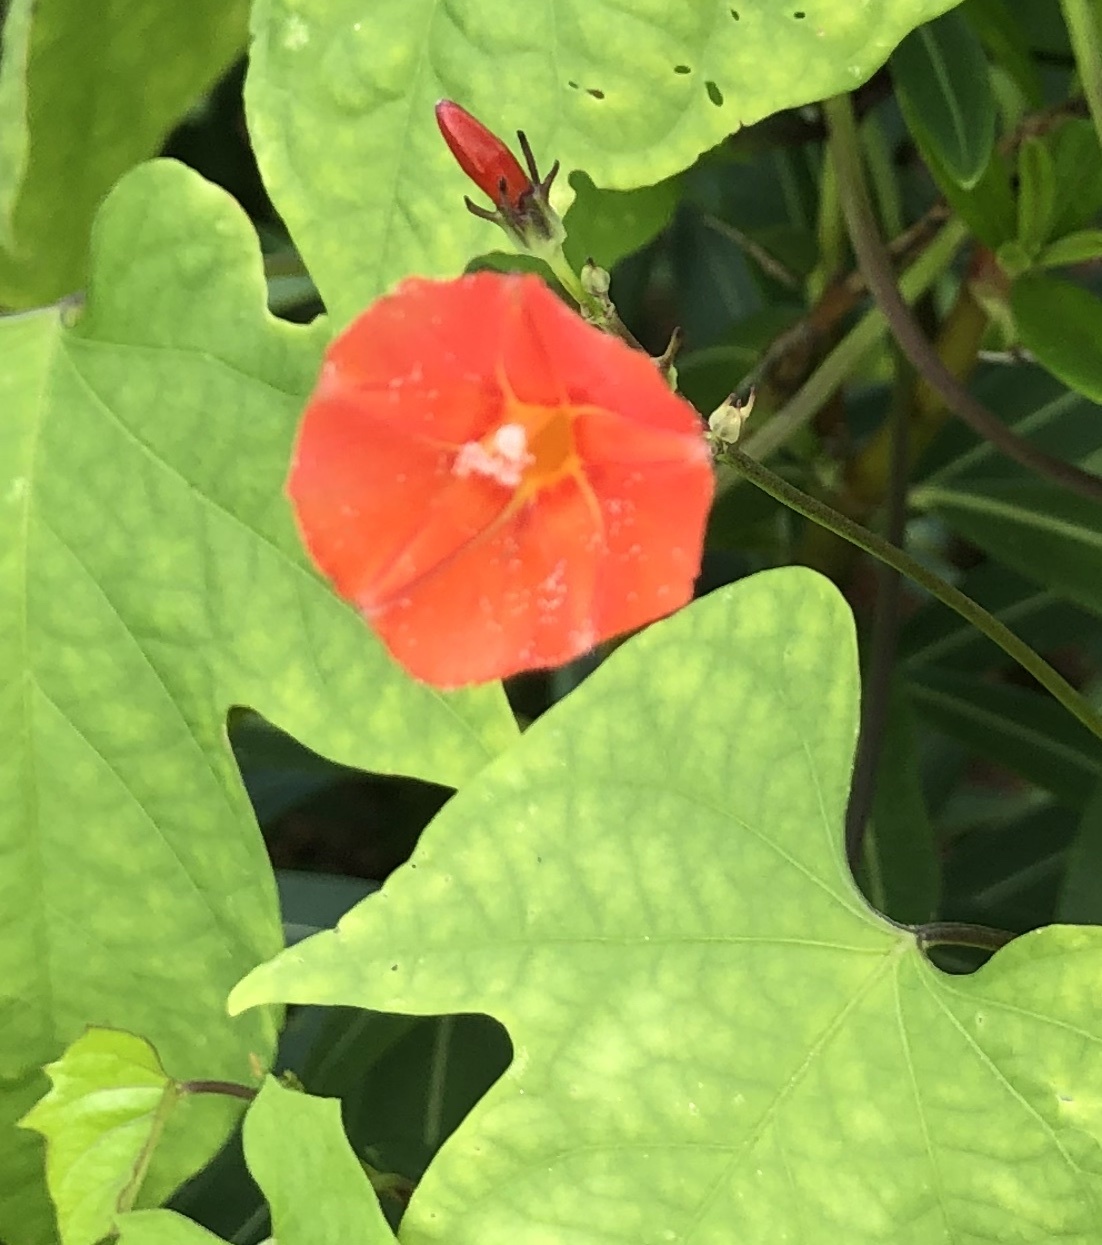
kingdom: Plantae
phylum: Tracheophyta
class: Magnoliopsida
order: Solanales
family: Convolvulaceae
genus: Ipomoea
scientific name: Ipomoea hederifolia
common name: Ivy-leaf morning-glory
